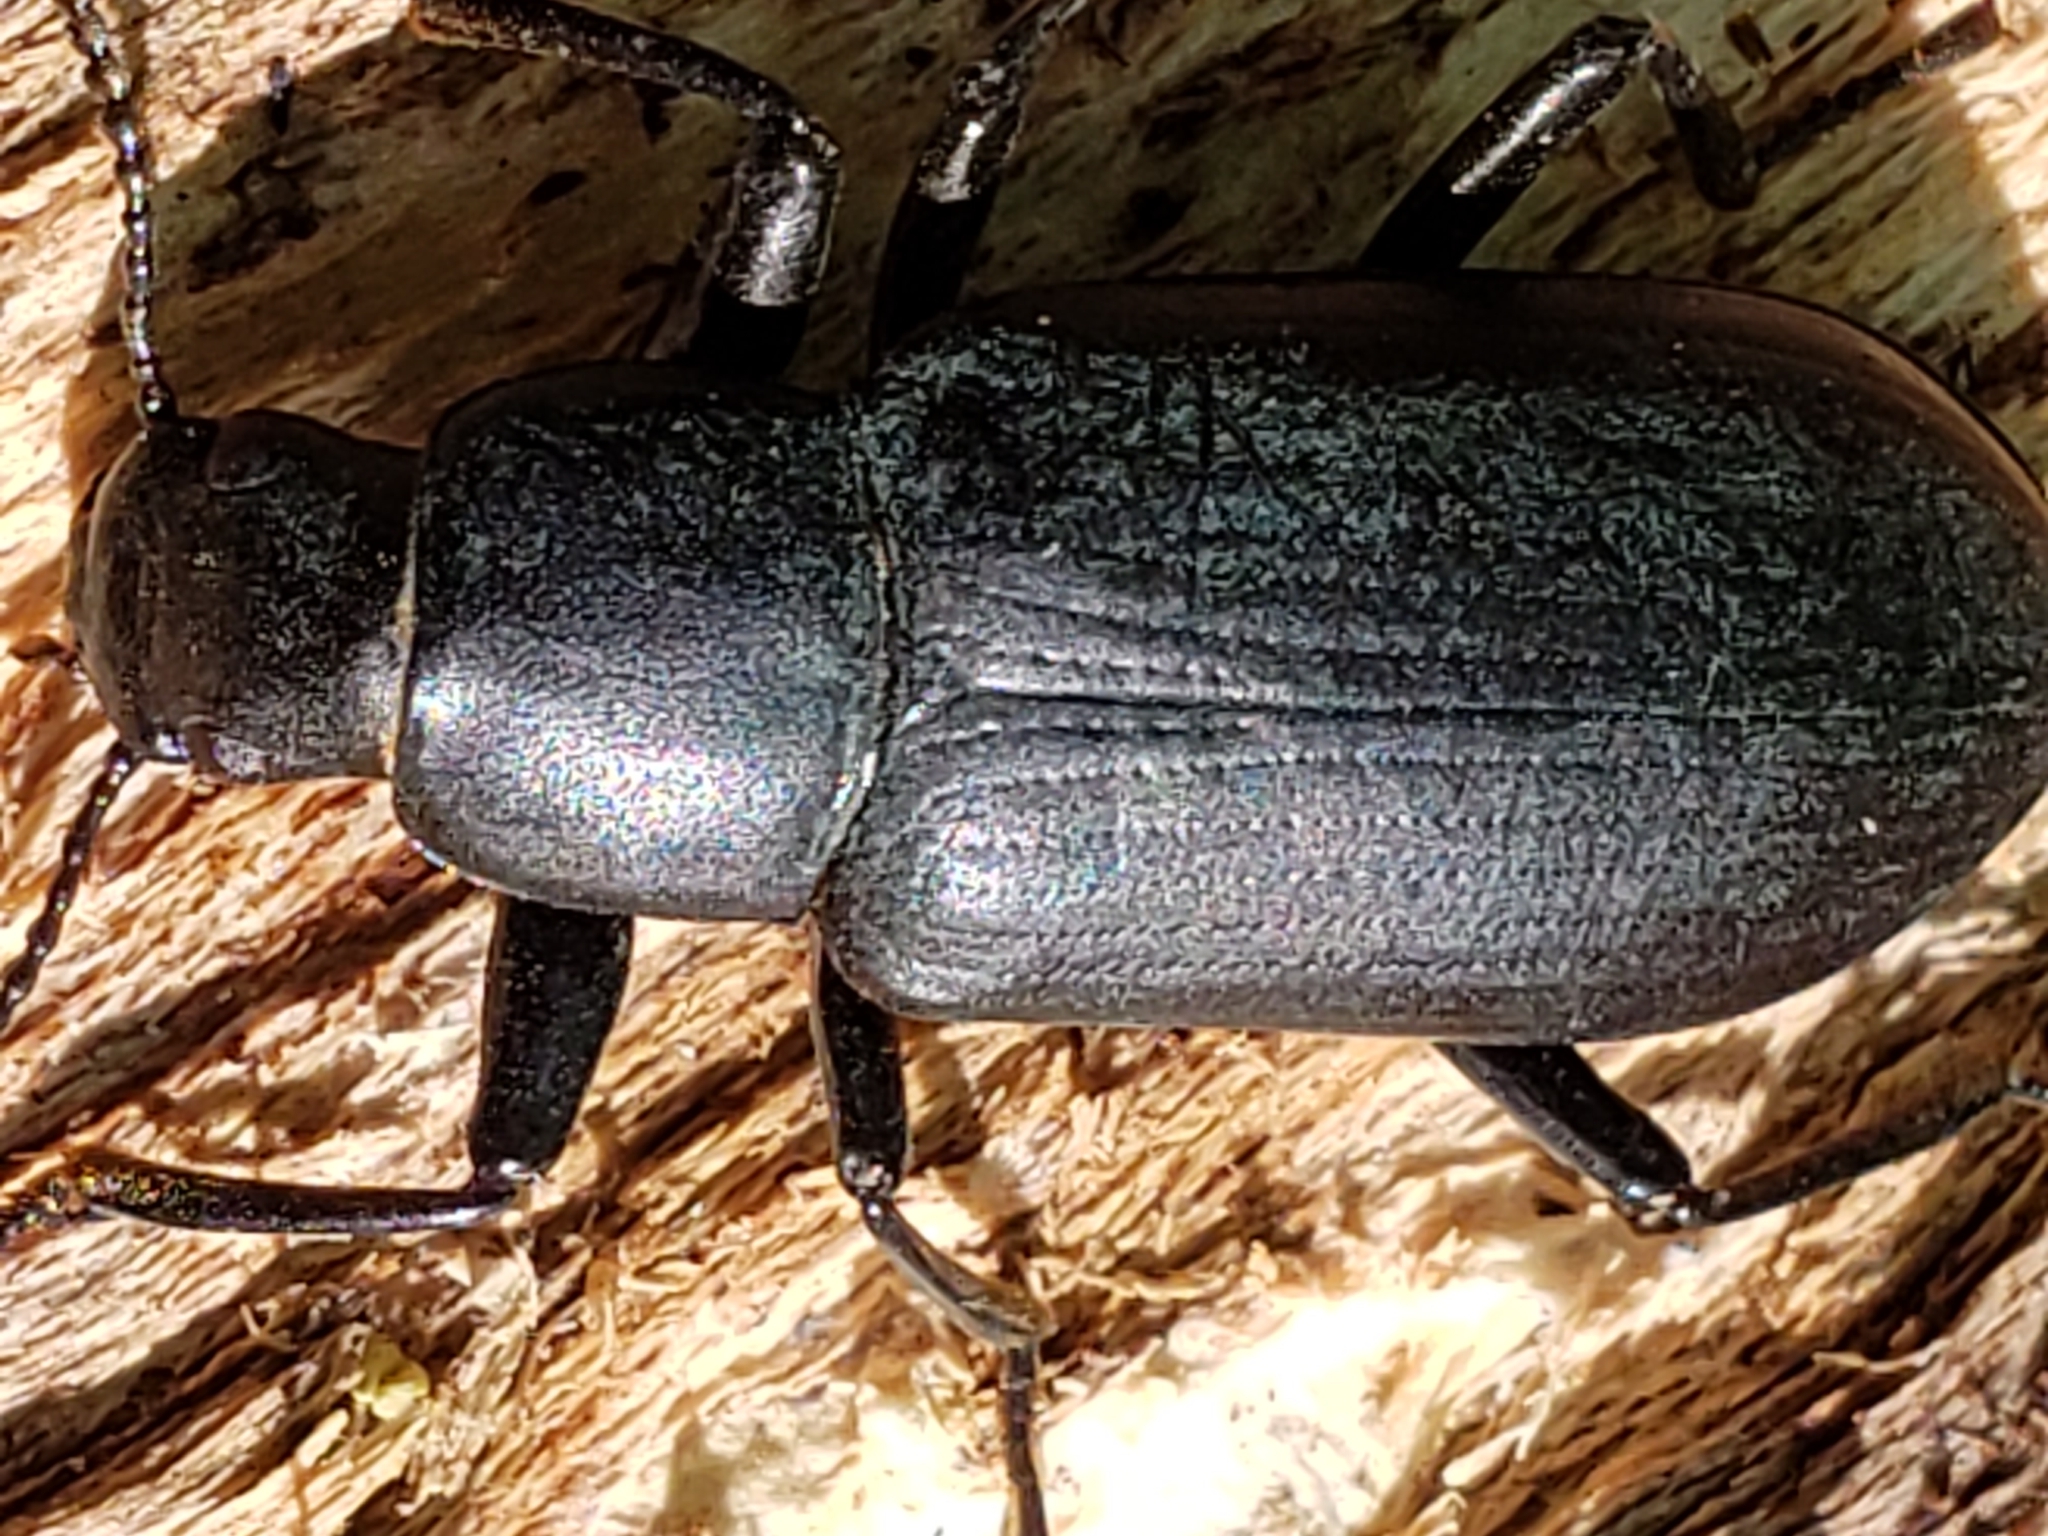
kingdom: Animalia
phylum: Arthropoda
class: Insecta
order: Coleoptera
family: Tenebrionidae
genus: Alobates
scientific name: Alobates
